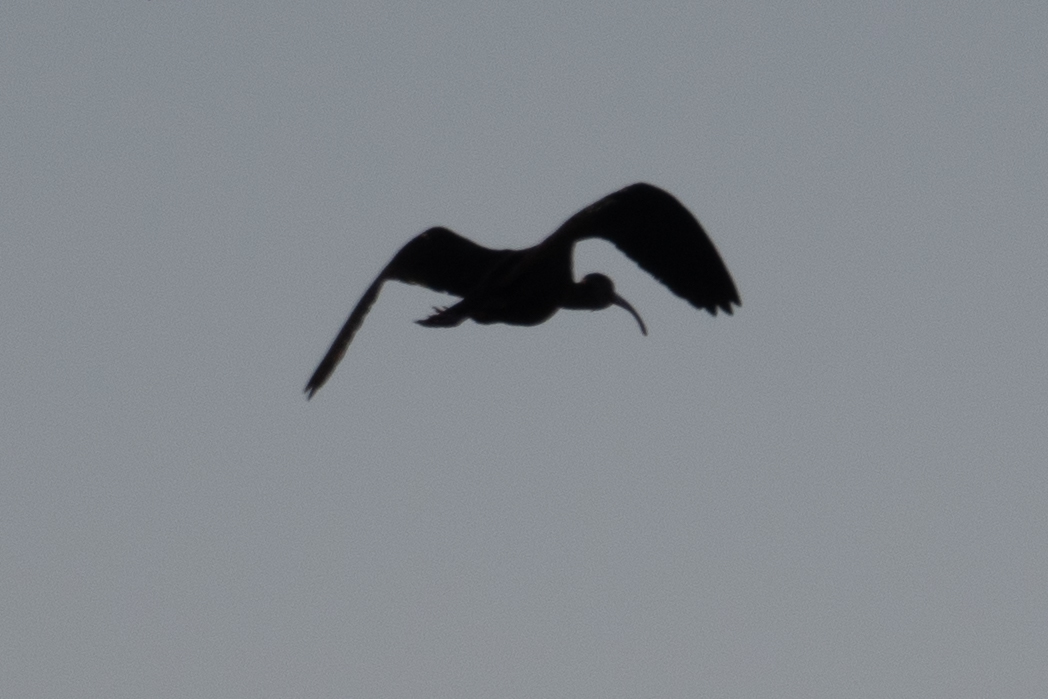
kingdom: Animalia
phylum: Chordata
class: Aves
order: Pelecaniformes
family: Threskiornithidae
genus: Plegadis
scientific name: Plegadis chihi
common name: White-faced ibis
